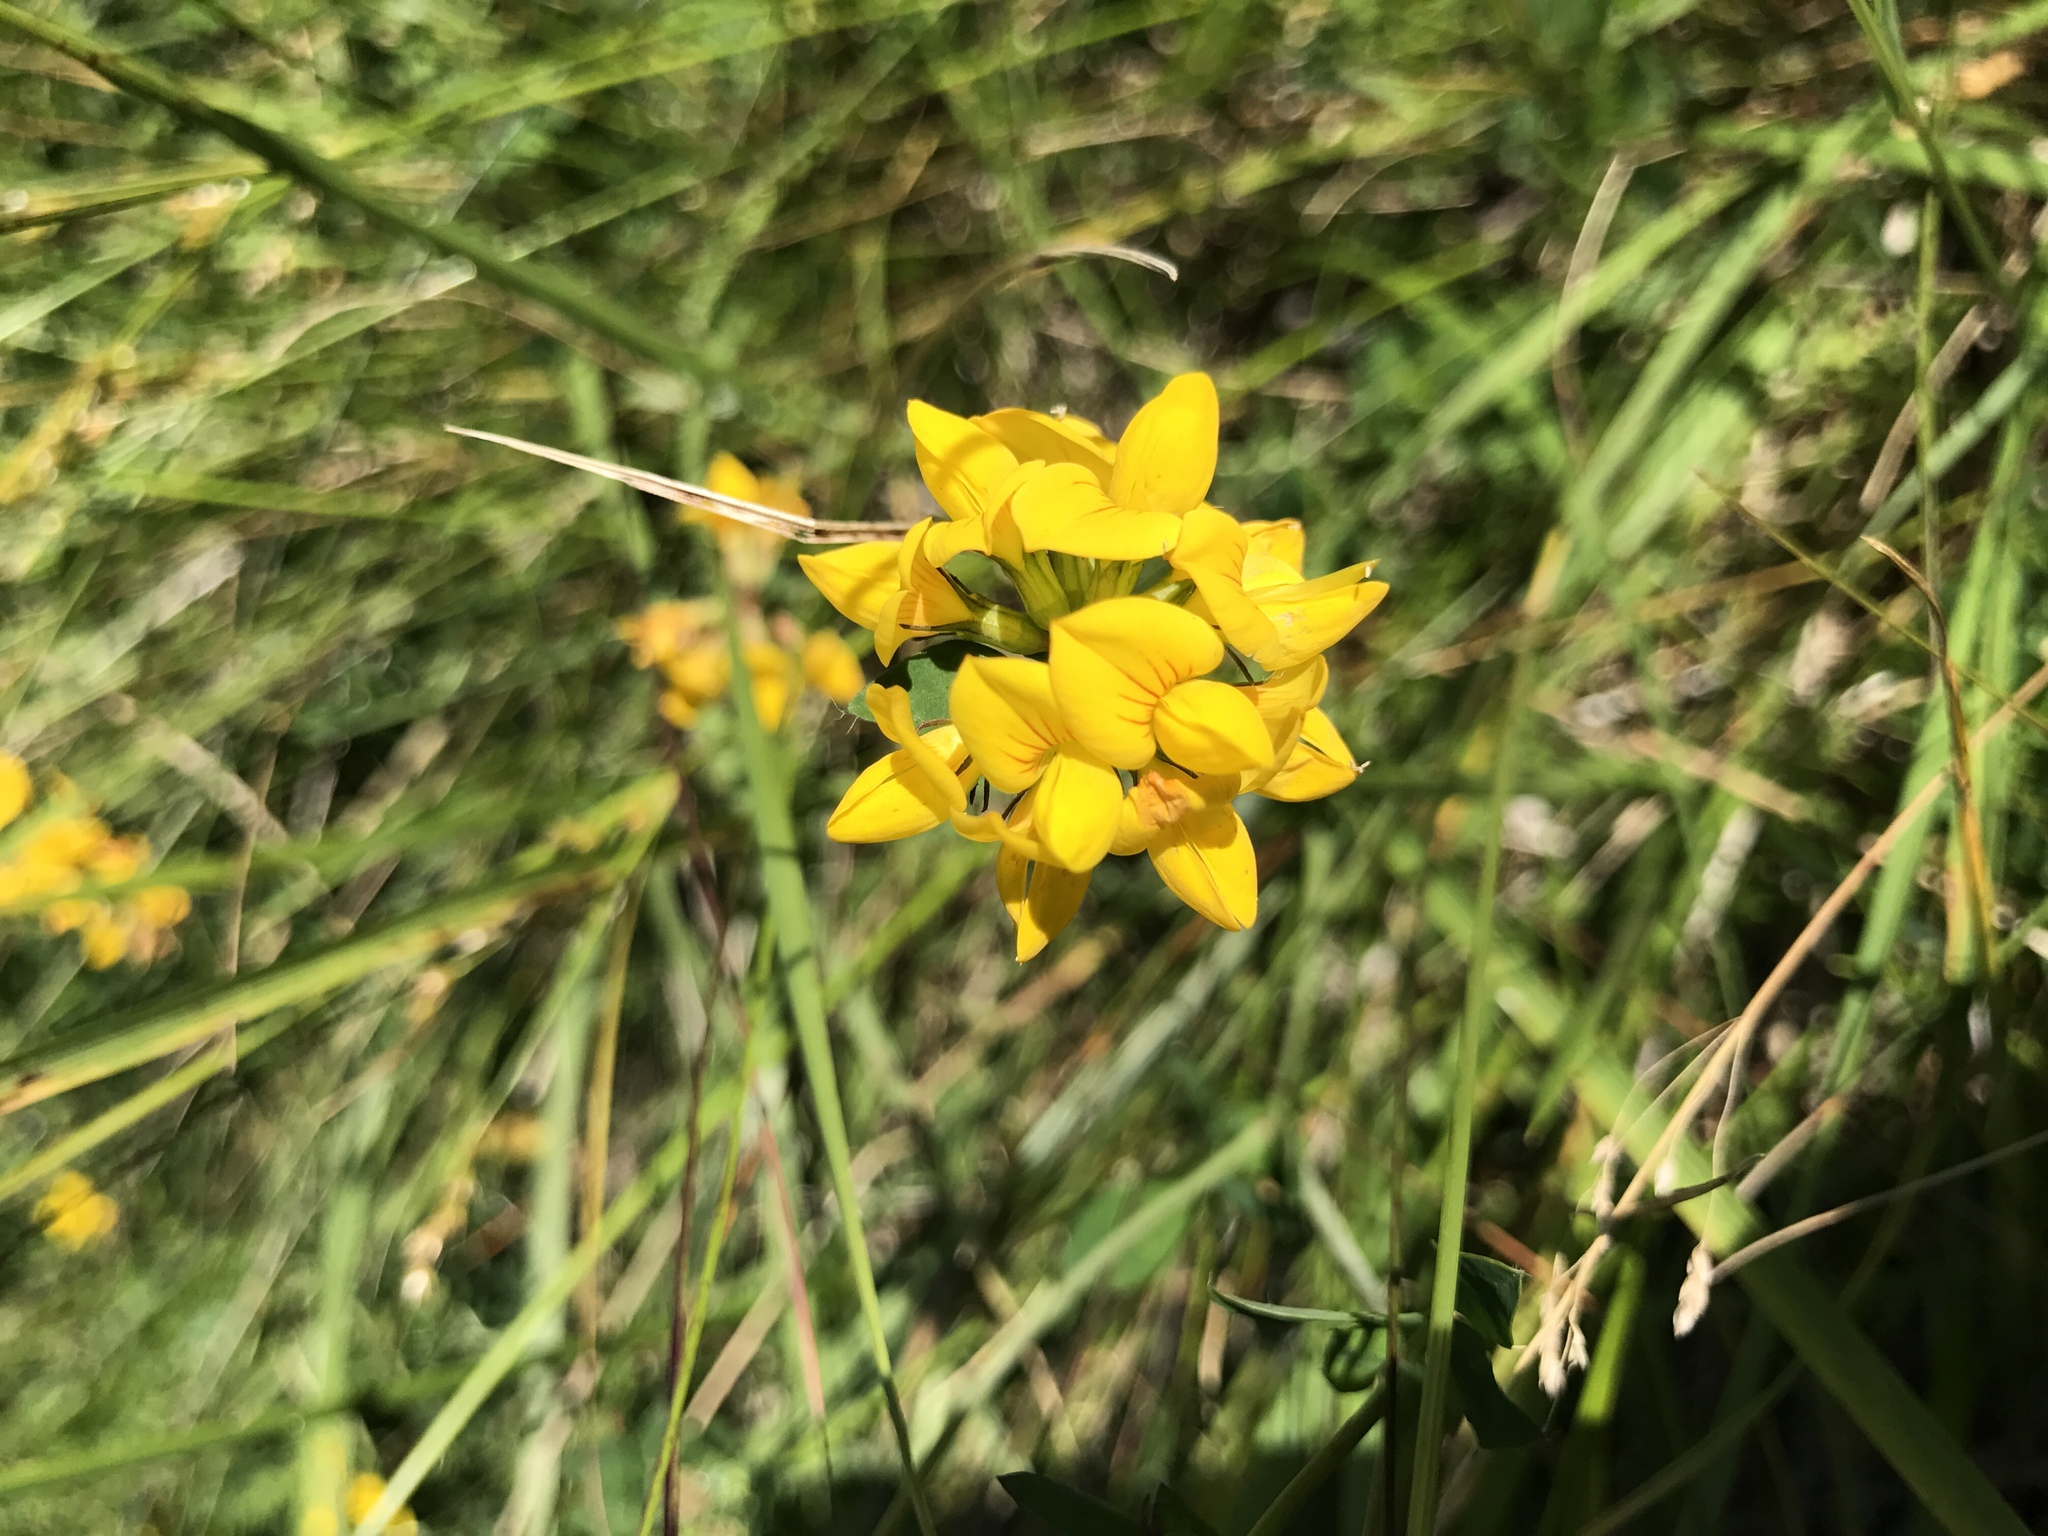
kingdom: Plantae
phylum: Tracheophyta
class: Magnoliopsida
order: Fabales
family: Fabaceae
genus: Lotus
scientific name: Lotus corniculatus
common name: Common bird's-foot-trefoil
